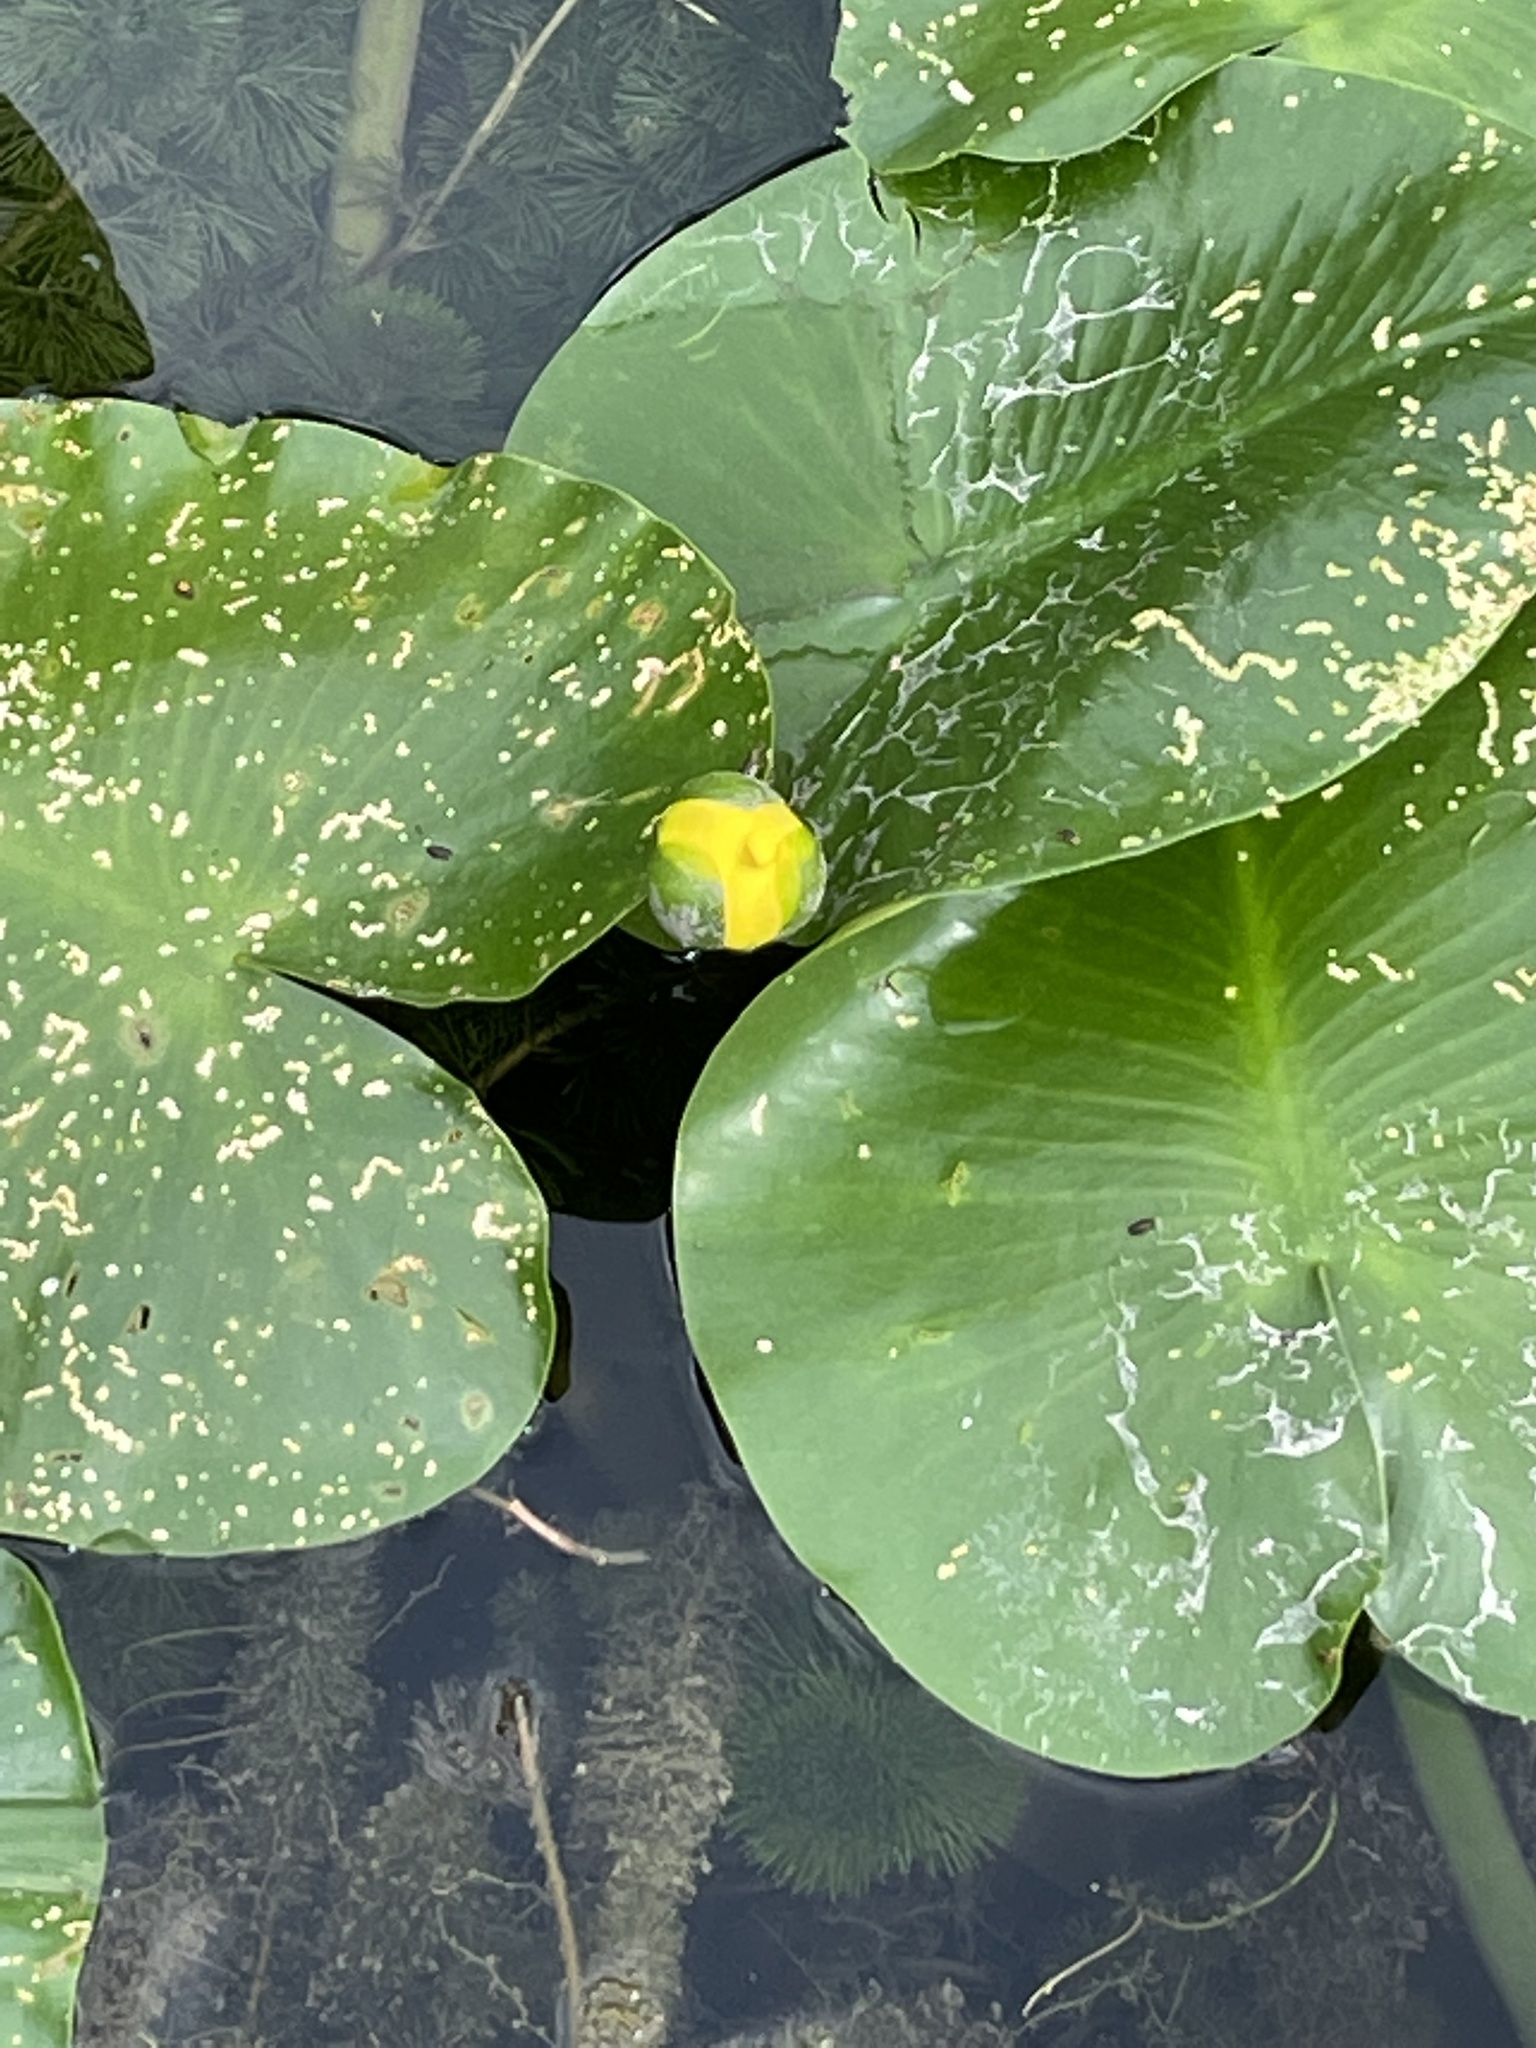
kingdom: Plantae
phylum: Tracheophyta
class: Magnoliopsida
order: Nymphaeales
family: Nymphaeaceae
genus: Nuphar
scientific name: Nuphar advena
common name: Spatter-dock
